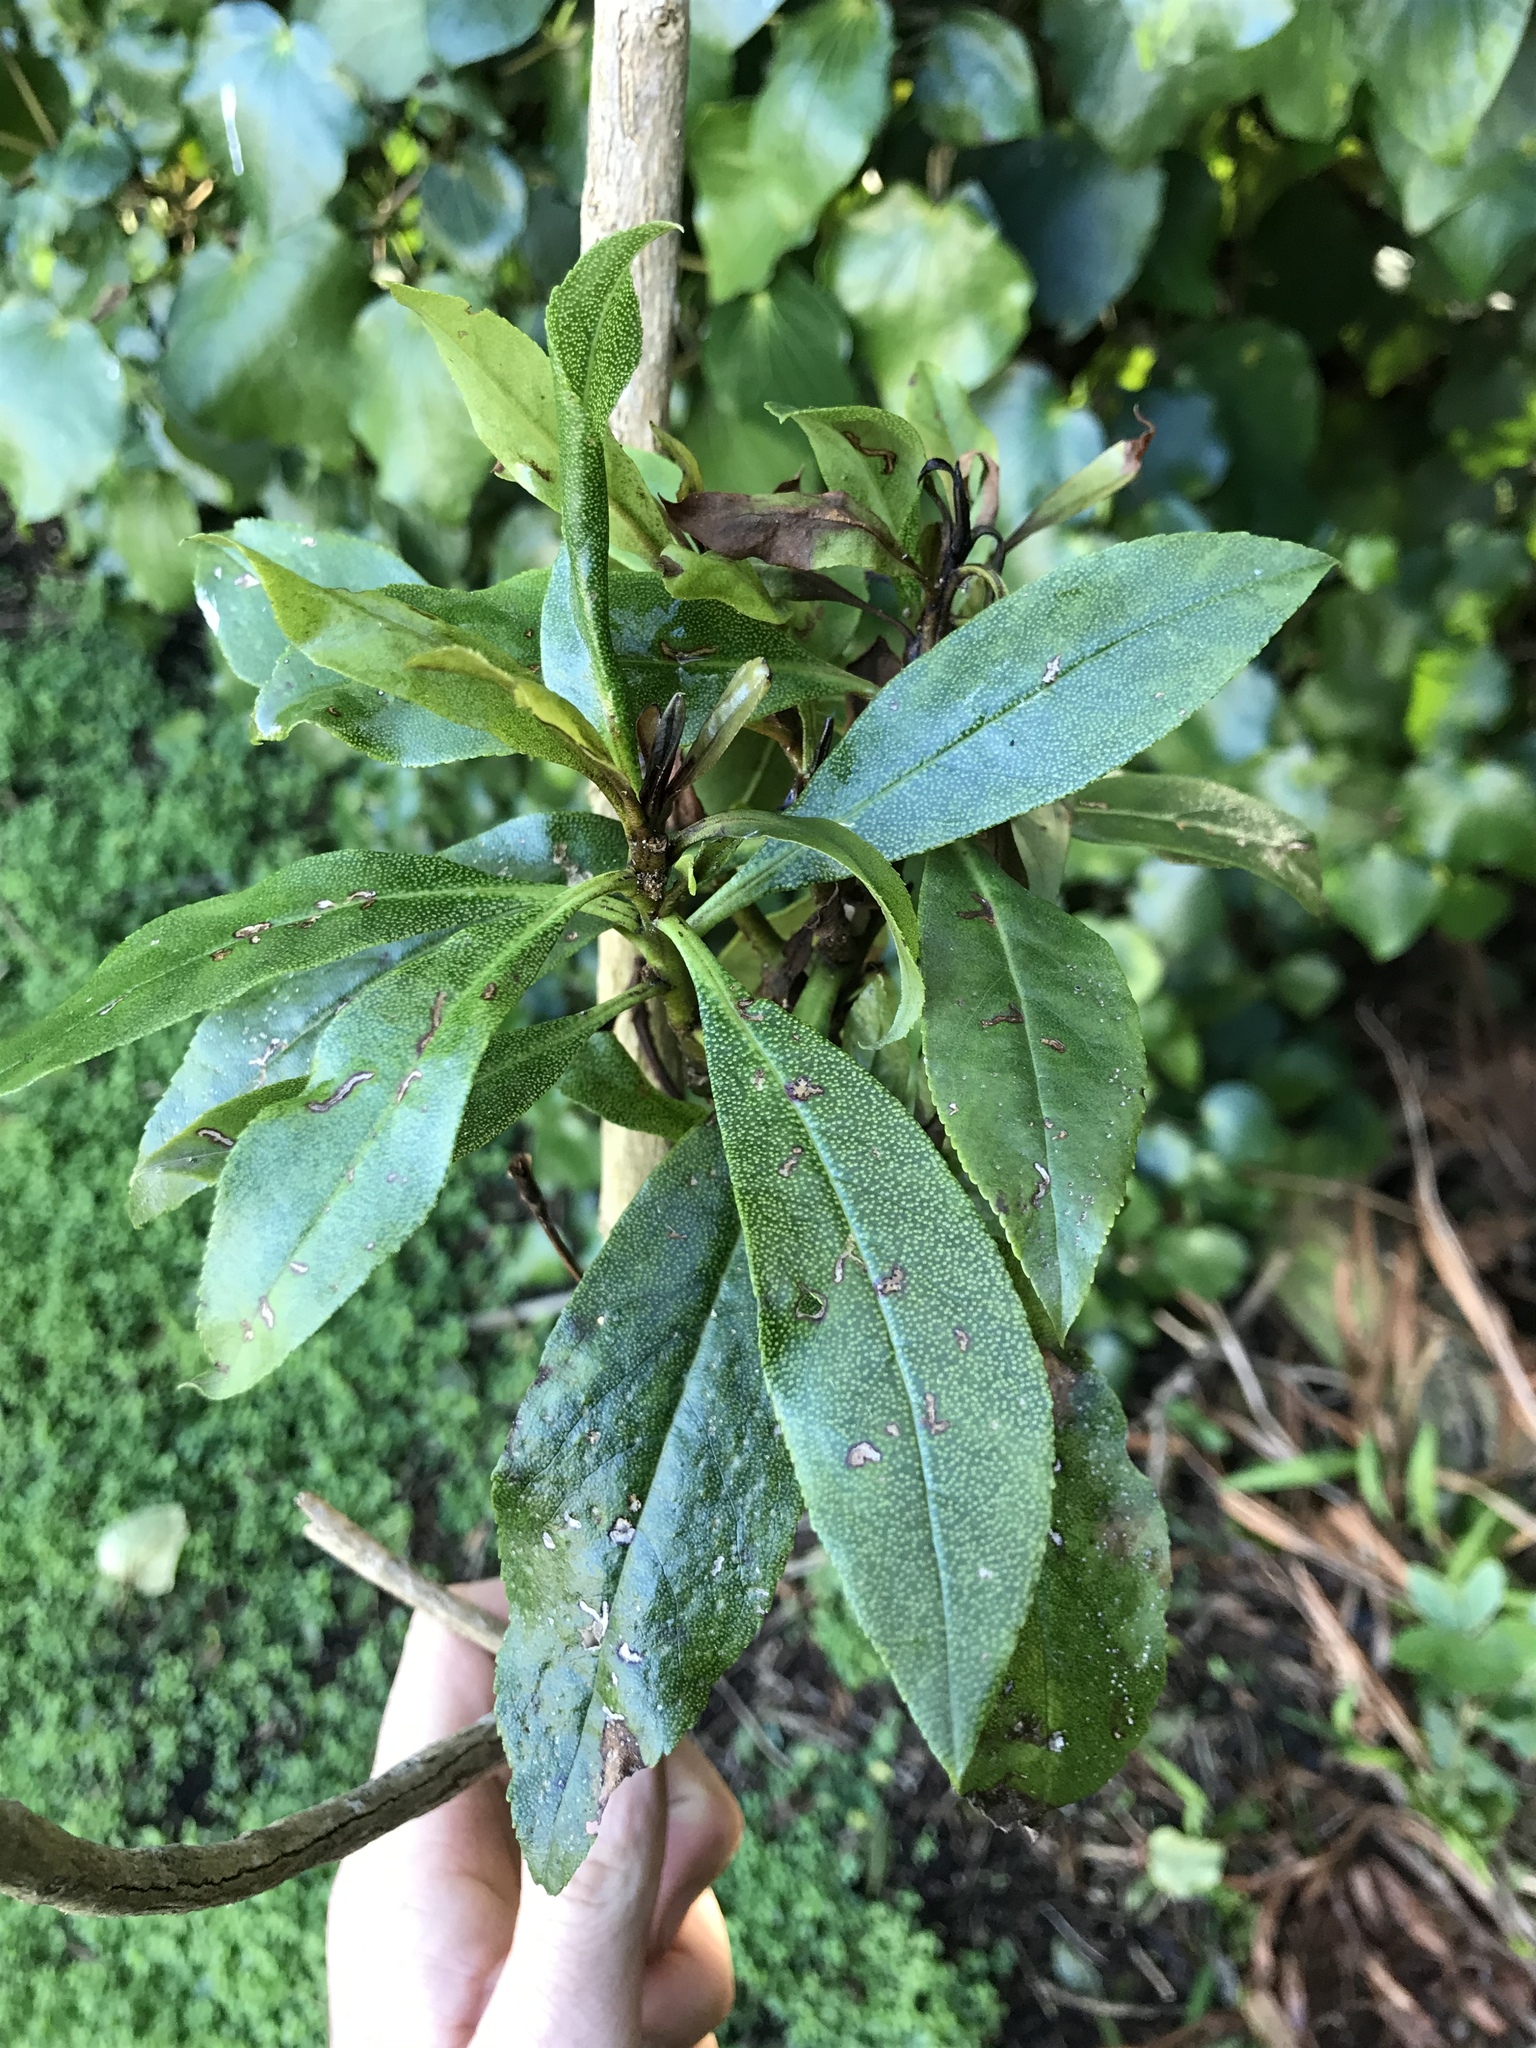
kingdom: Plantae
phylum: Tracheophyta
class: Magnoliopsida
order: Lamiales
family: Scrophulariaceae
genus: Myoporum
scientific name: Myoporum laetum
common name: Ngaio tree
